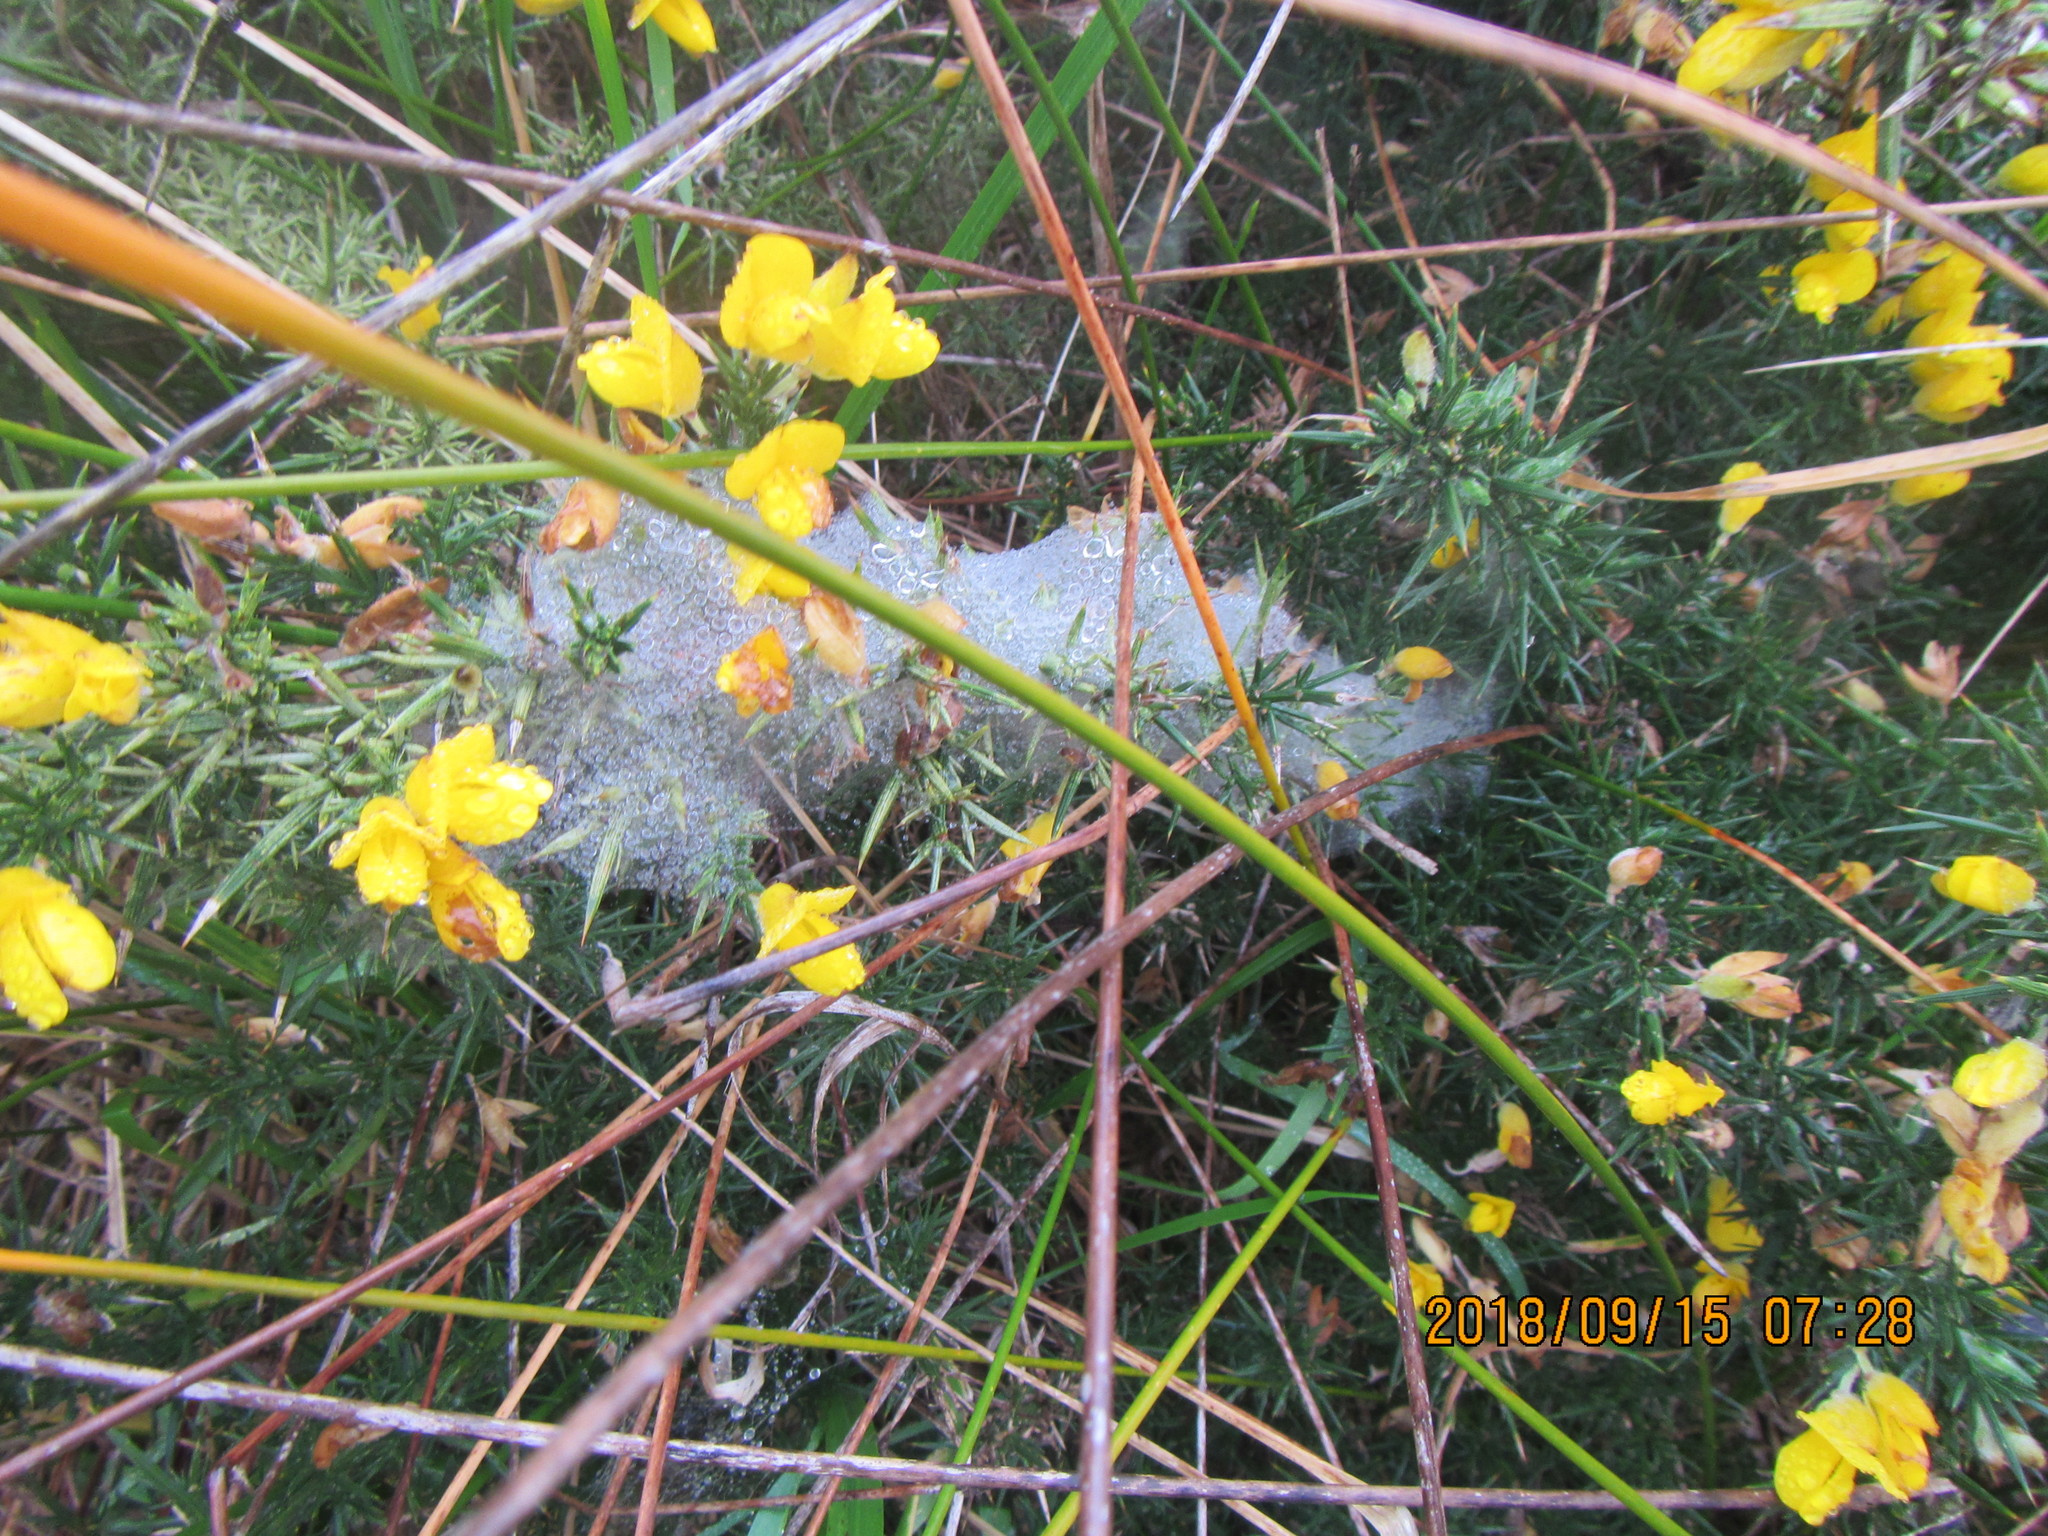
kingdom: Animalia
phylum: Arthropoda
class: Arachnida
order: Trombidiformes
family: Tetranychidae
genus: Tetranychus
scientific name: Tetranychus lintearius
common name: Gorse spider mite
